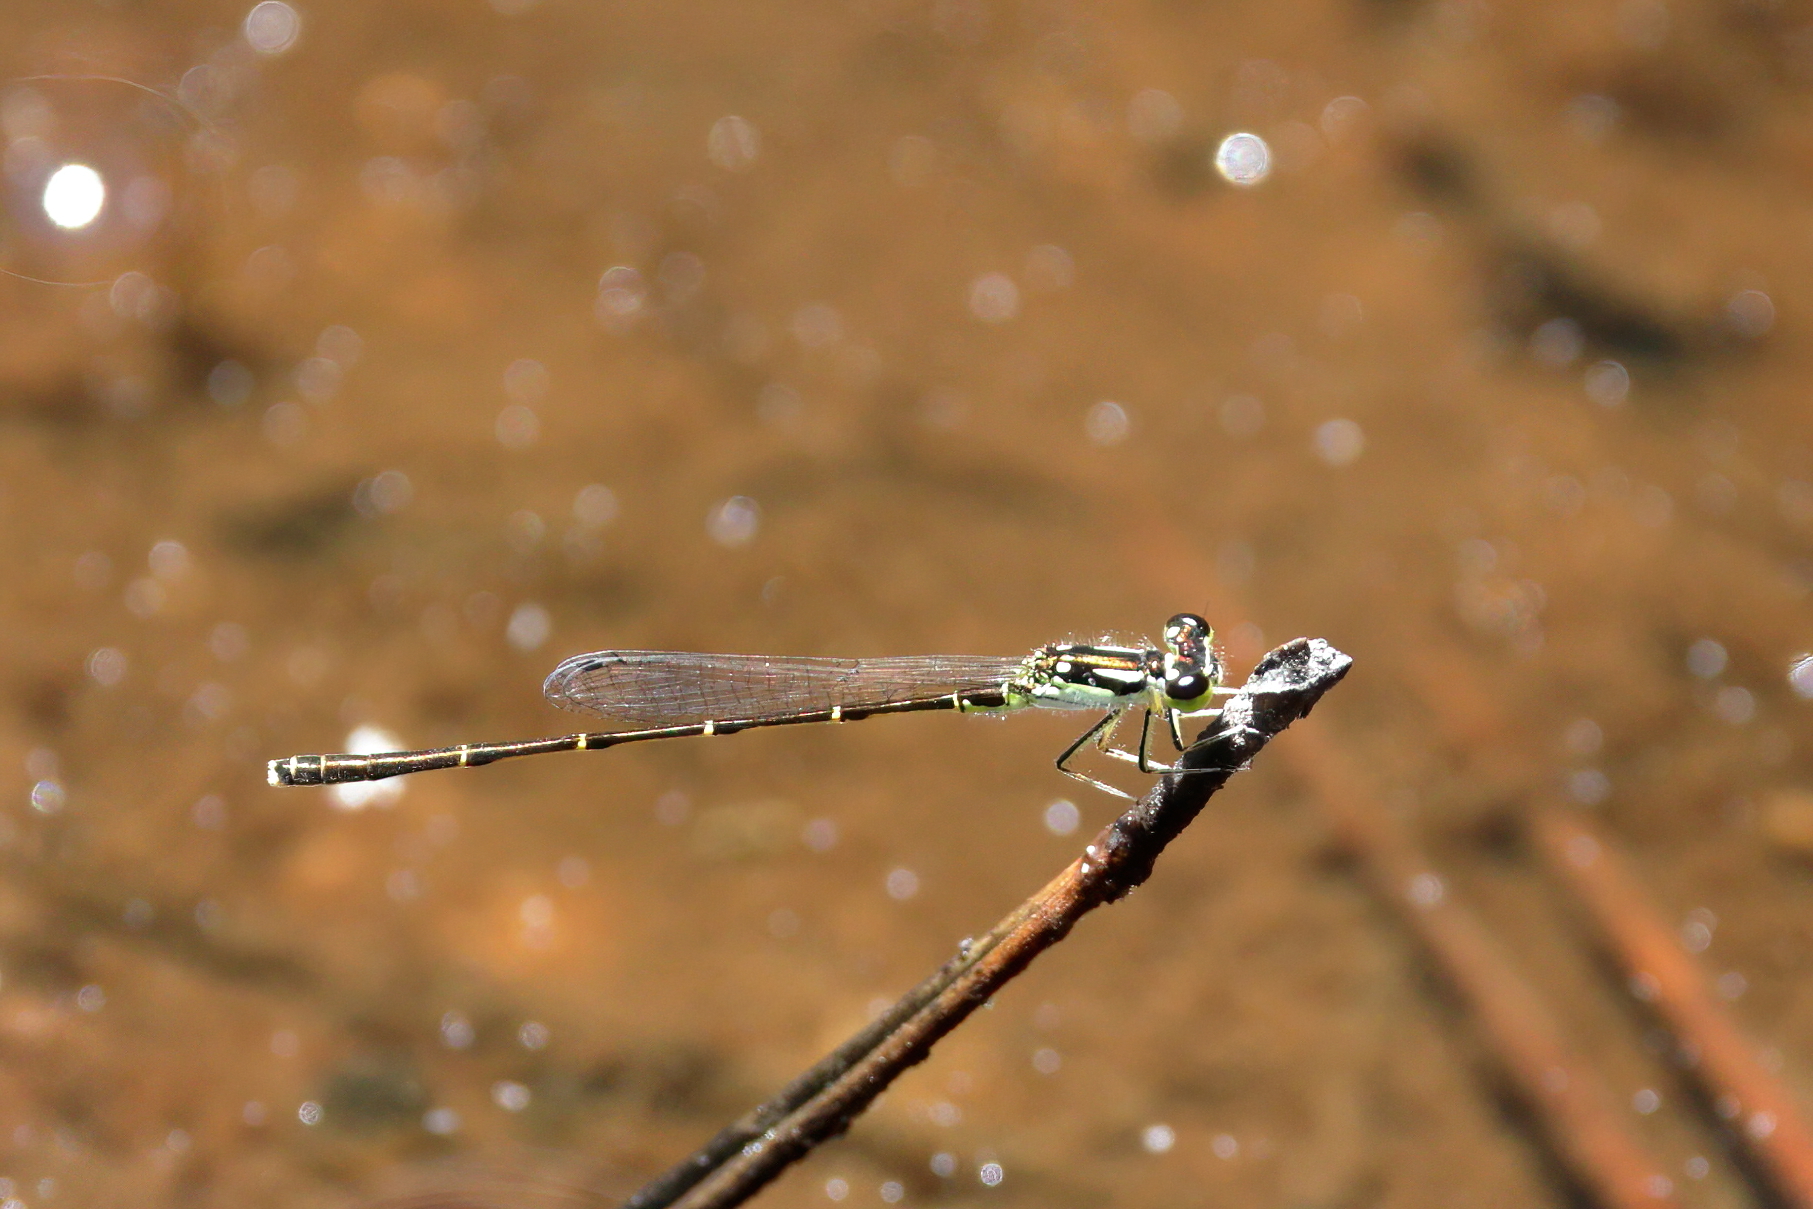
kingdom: Animalia
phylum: Arthropoda
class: Insecta
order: Odonata
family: Coenagrionidae
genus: Ischnura
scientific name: Ischnura posita
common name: Fragile forktail
